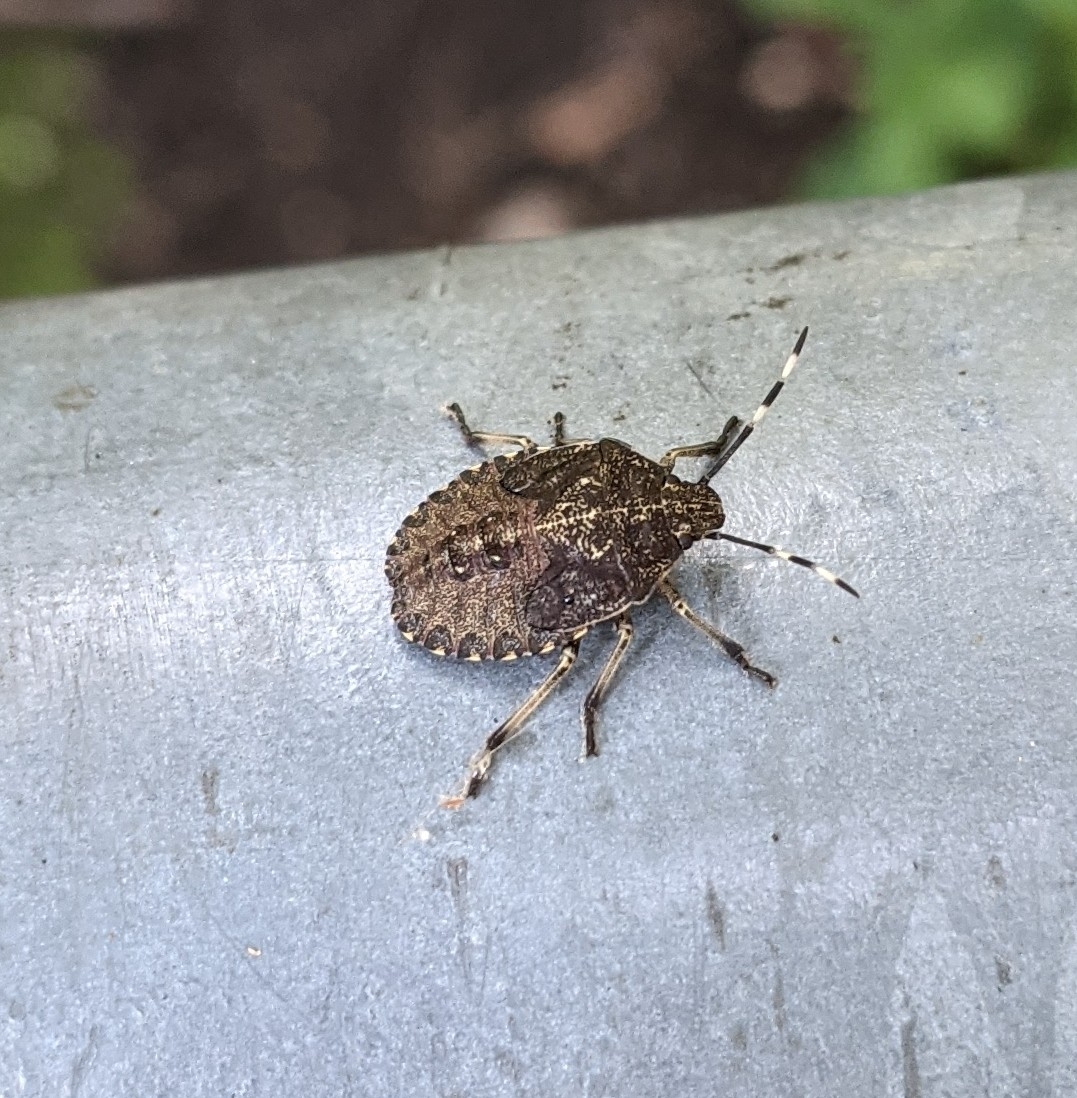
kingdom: Animalia
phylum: Arthropoda
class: Insecta
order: Hemiptera
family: Pentatomidae
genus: Rhaphigaster
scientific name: Rhaphigaster nebulosa
